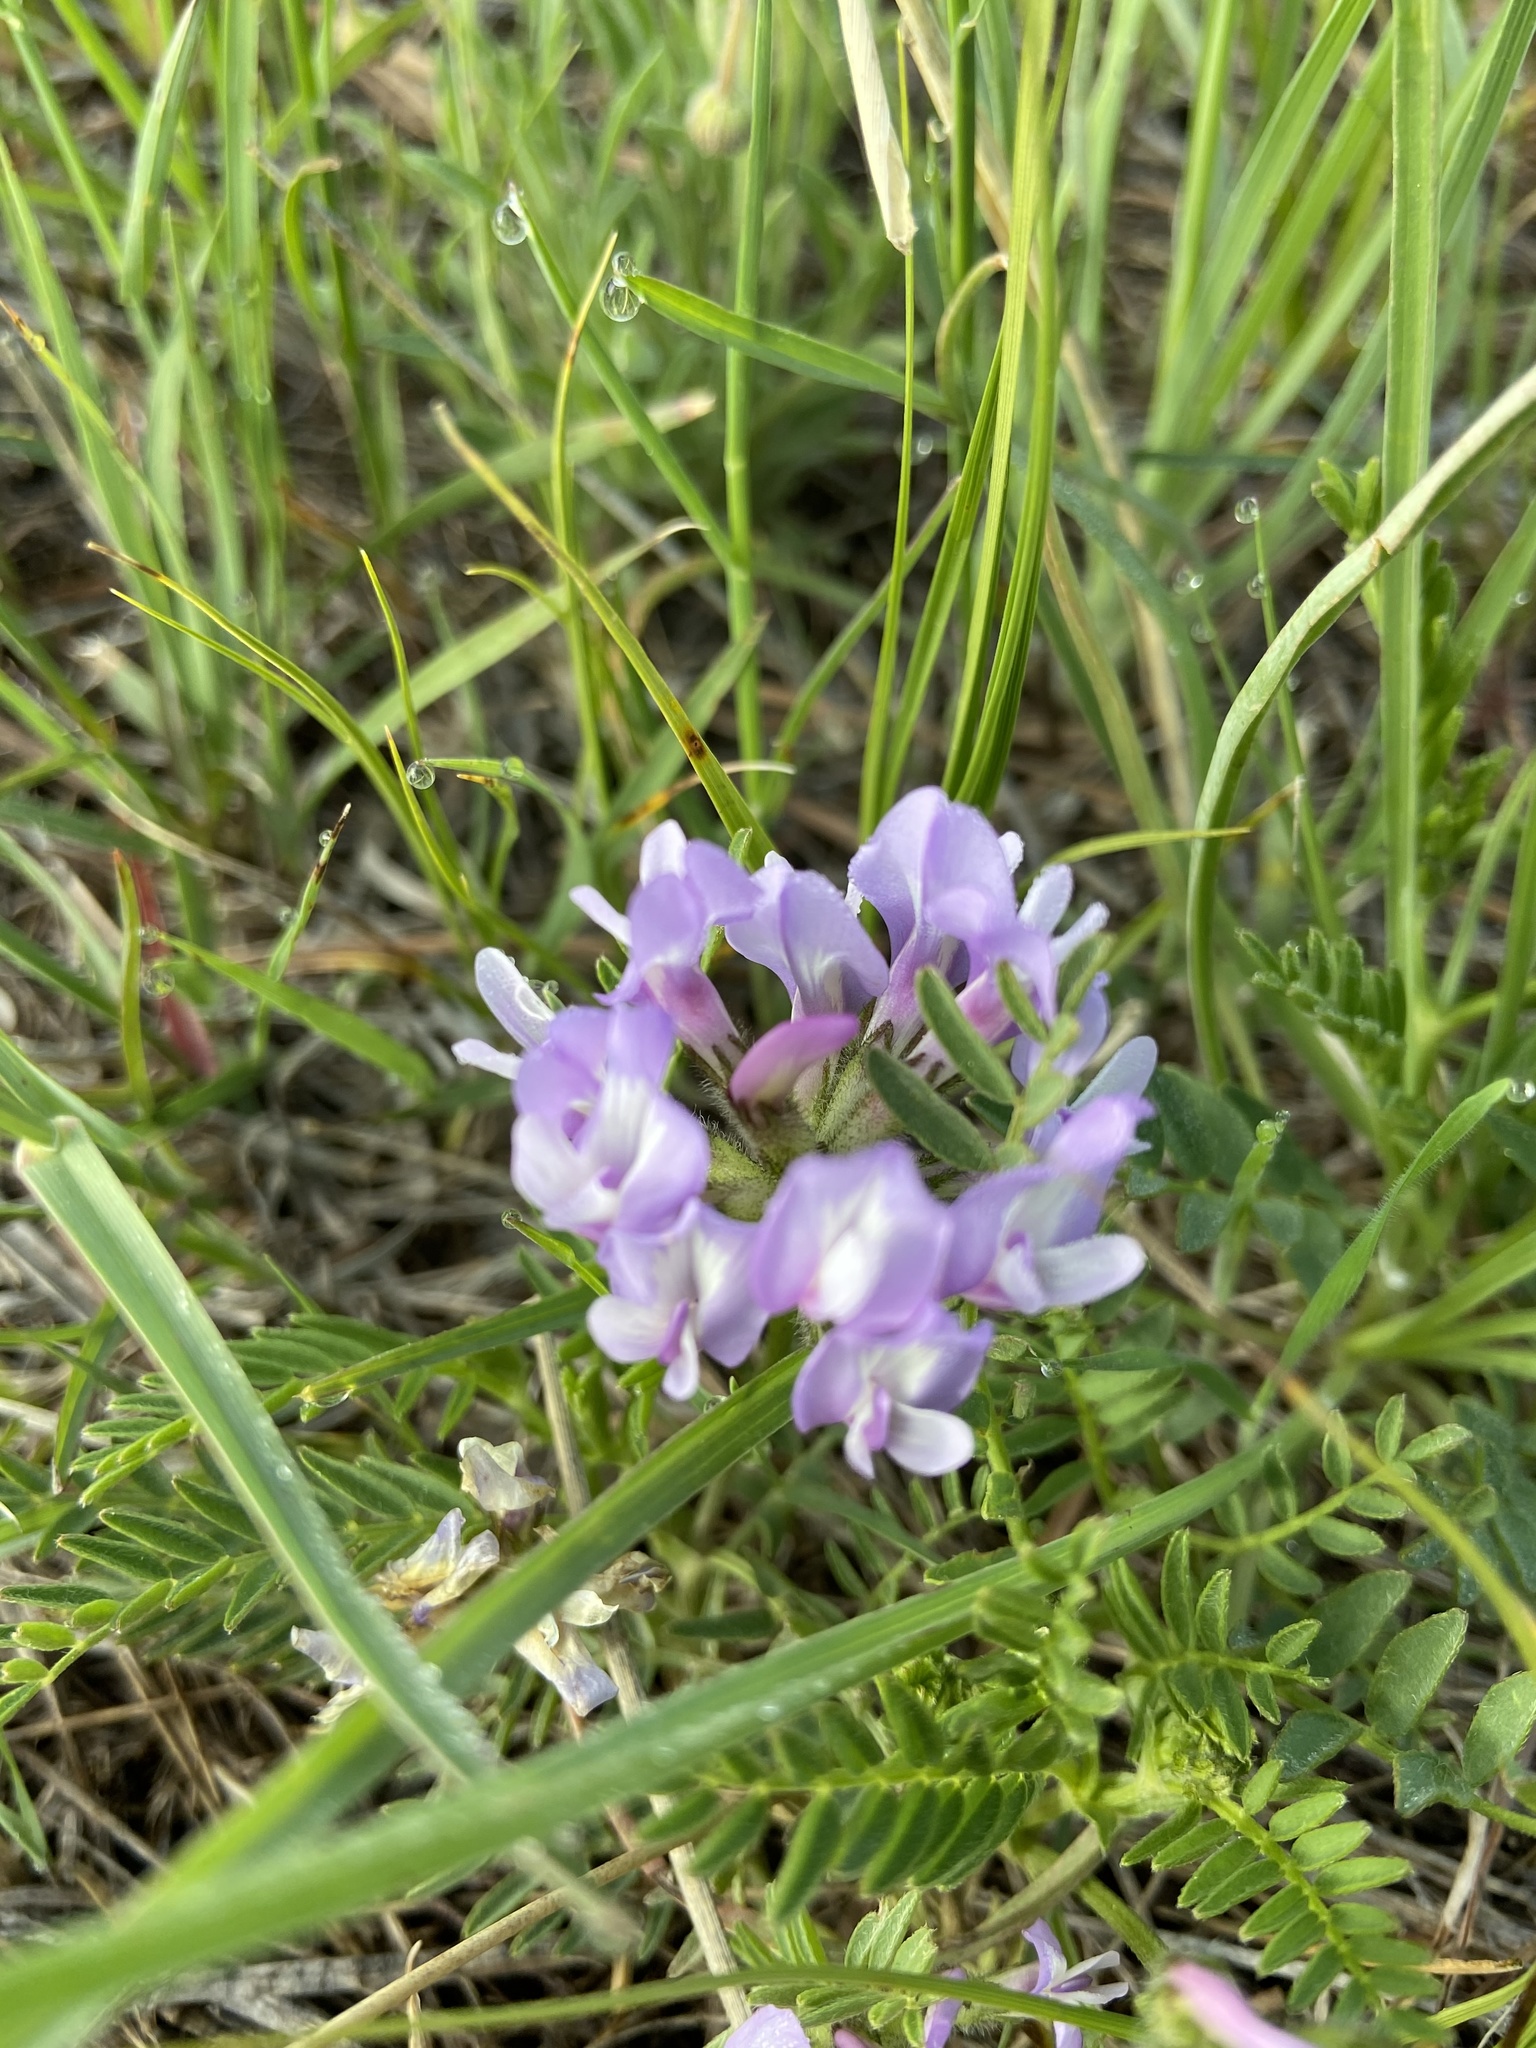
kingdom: Plantae
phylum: Tracheophyta
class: Magnoliopsida
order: Fabales
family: Fabaceae
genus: Astragalus
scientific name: Astragalus agrestis
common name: Field milk-vetch
